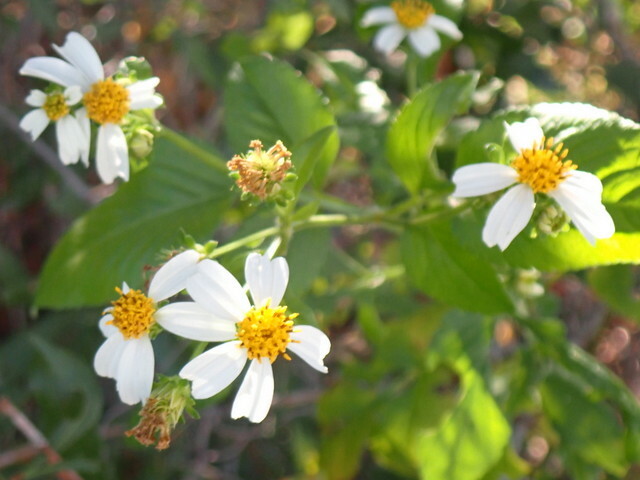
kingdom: Plantae
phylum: Tracheophyta
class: Magnoliopsida
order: Asterales
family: Asteraceae
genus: Bidens
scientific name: Bidens alba
